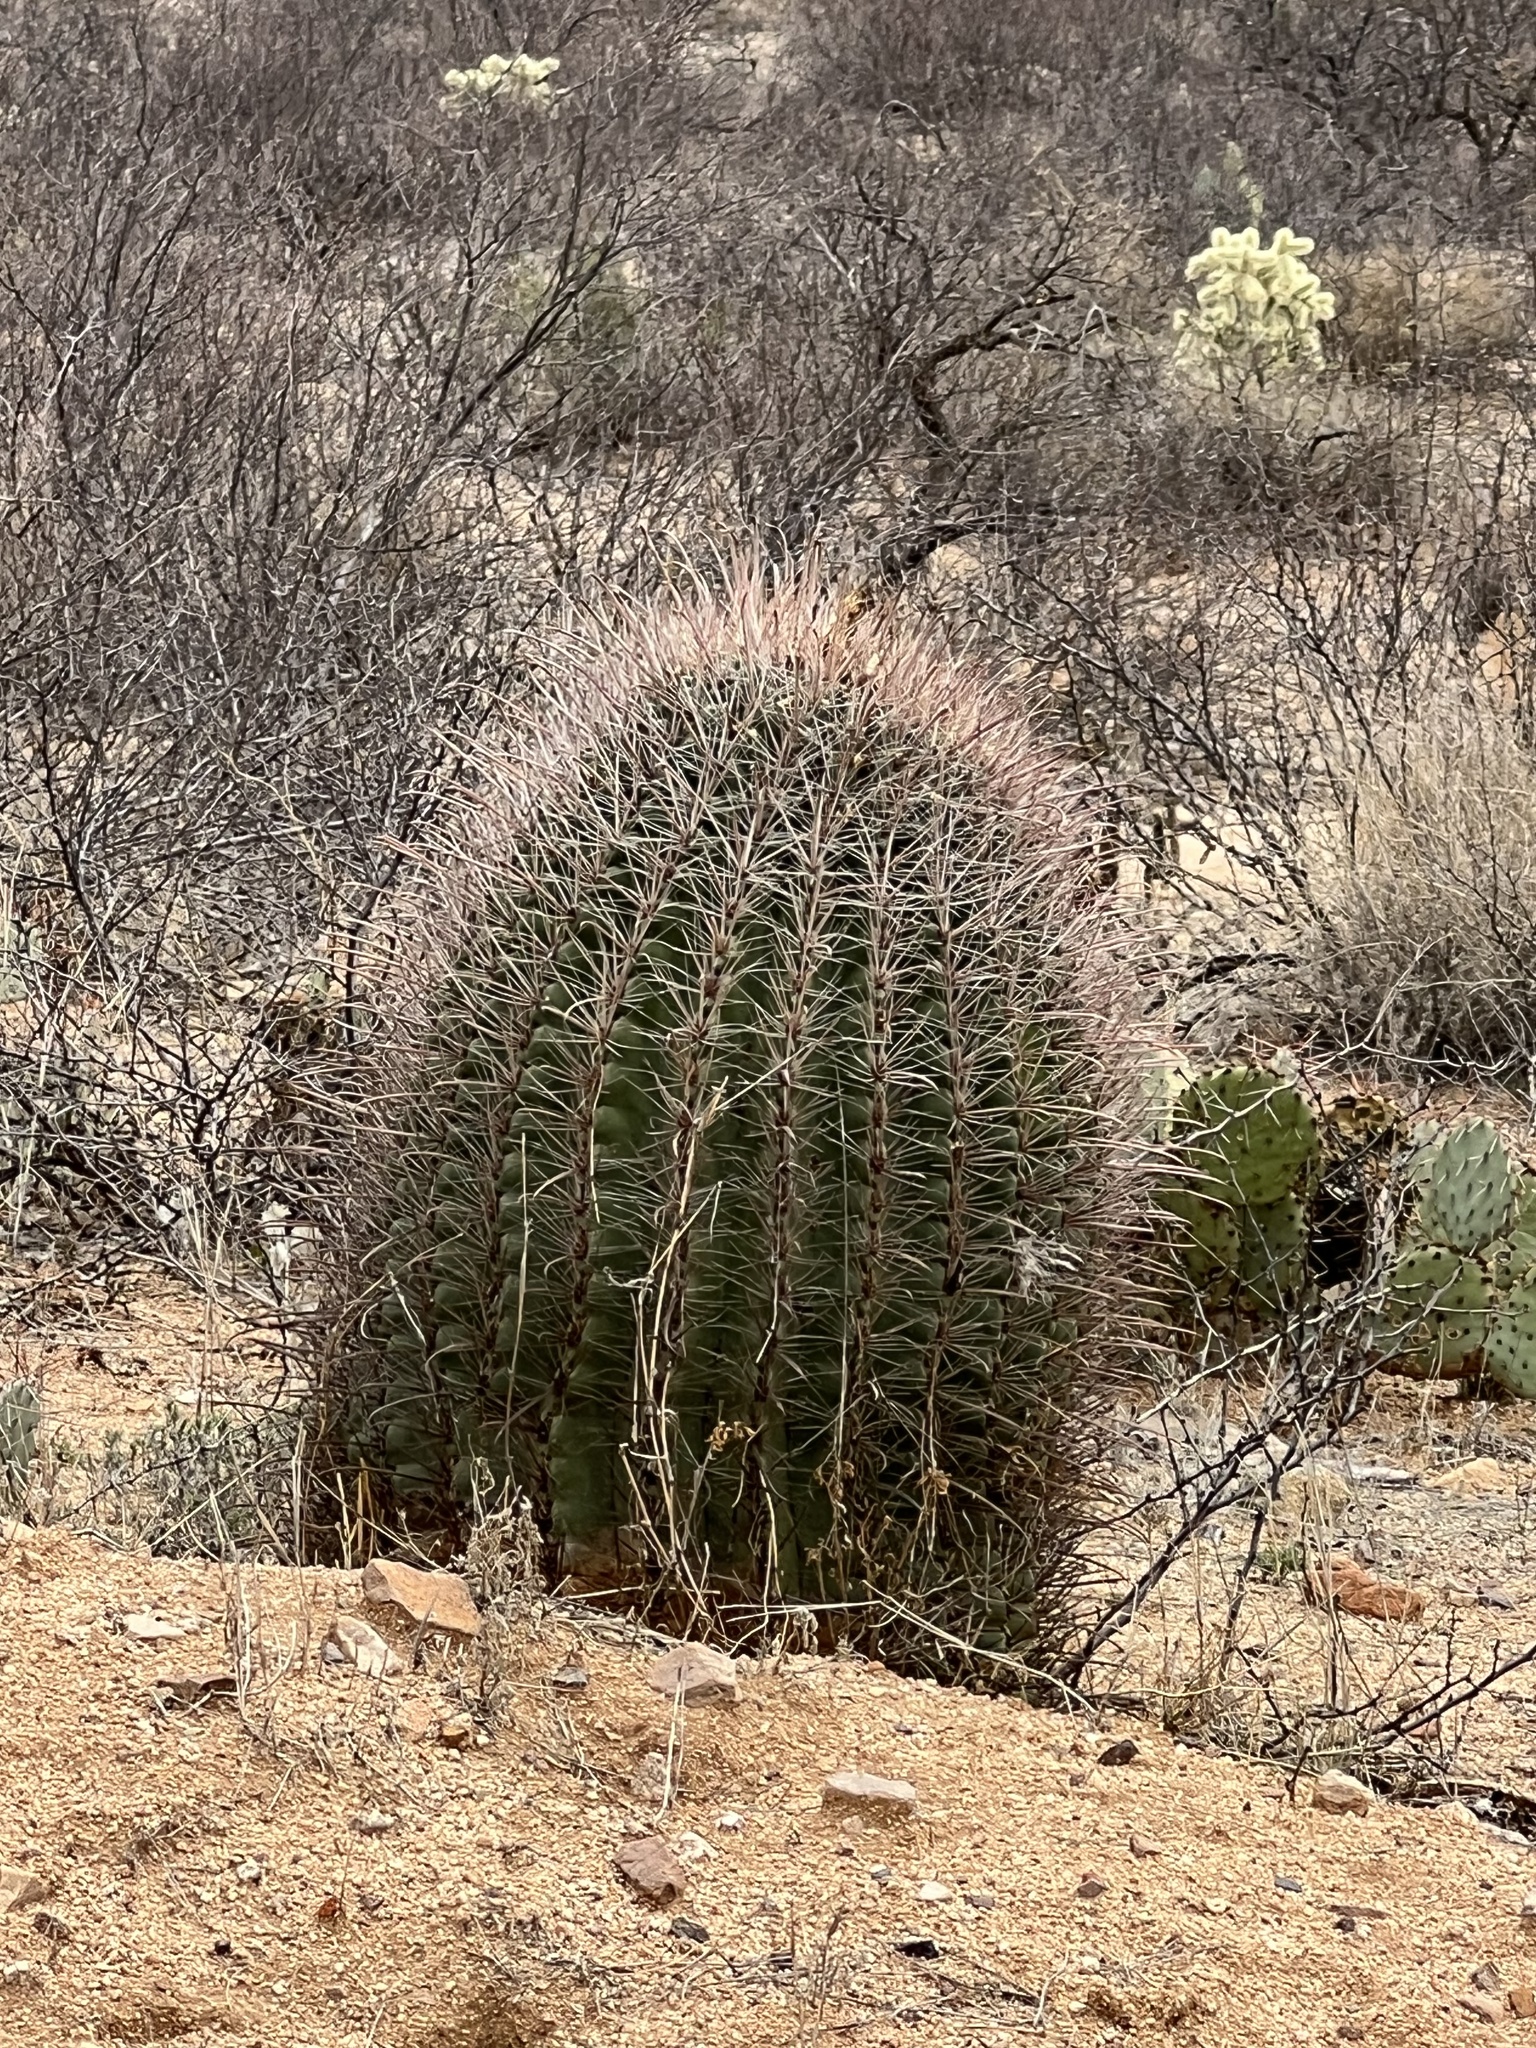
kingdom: Plantae
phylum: Tracheophyta
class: Magnoliopsida
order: Caryophyllales
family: Cactaceae
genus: Ferocactus
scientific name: Ferocactus wislizeni
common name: Candy barrel cactus
